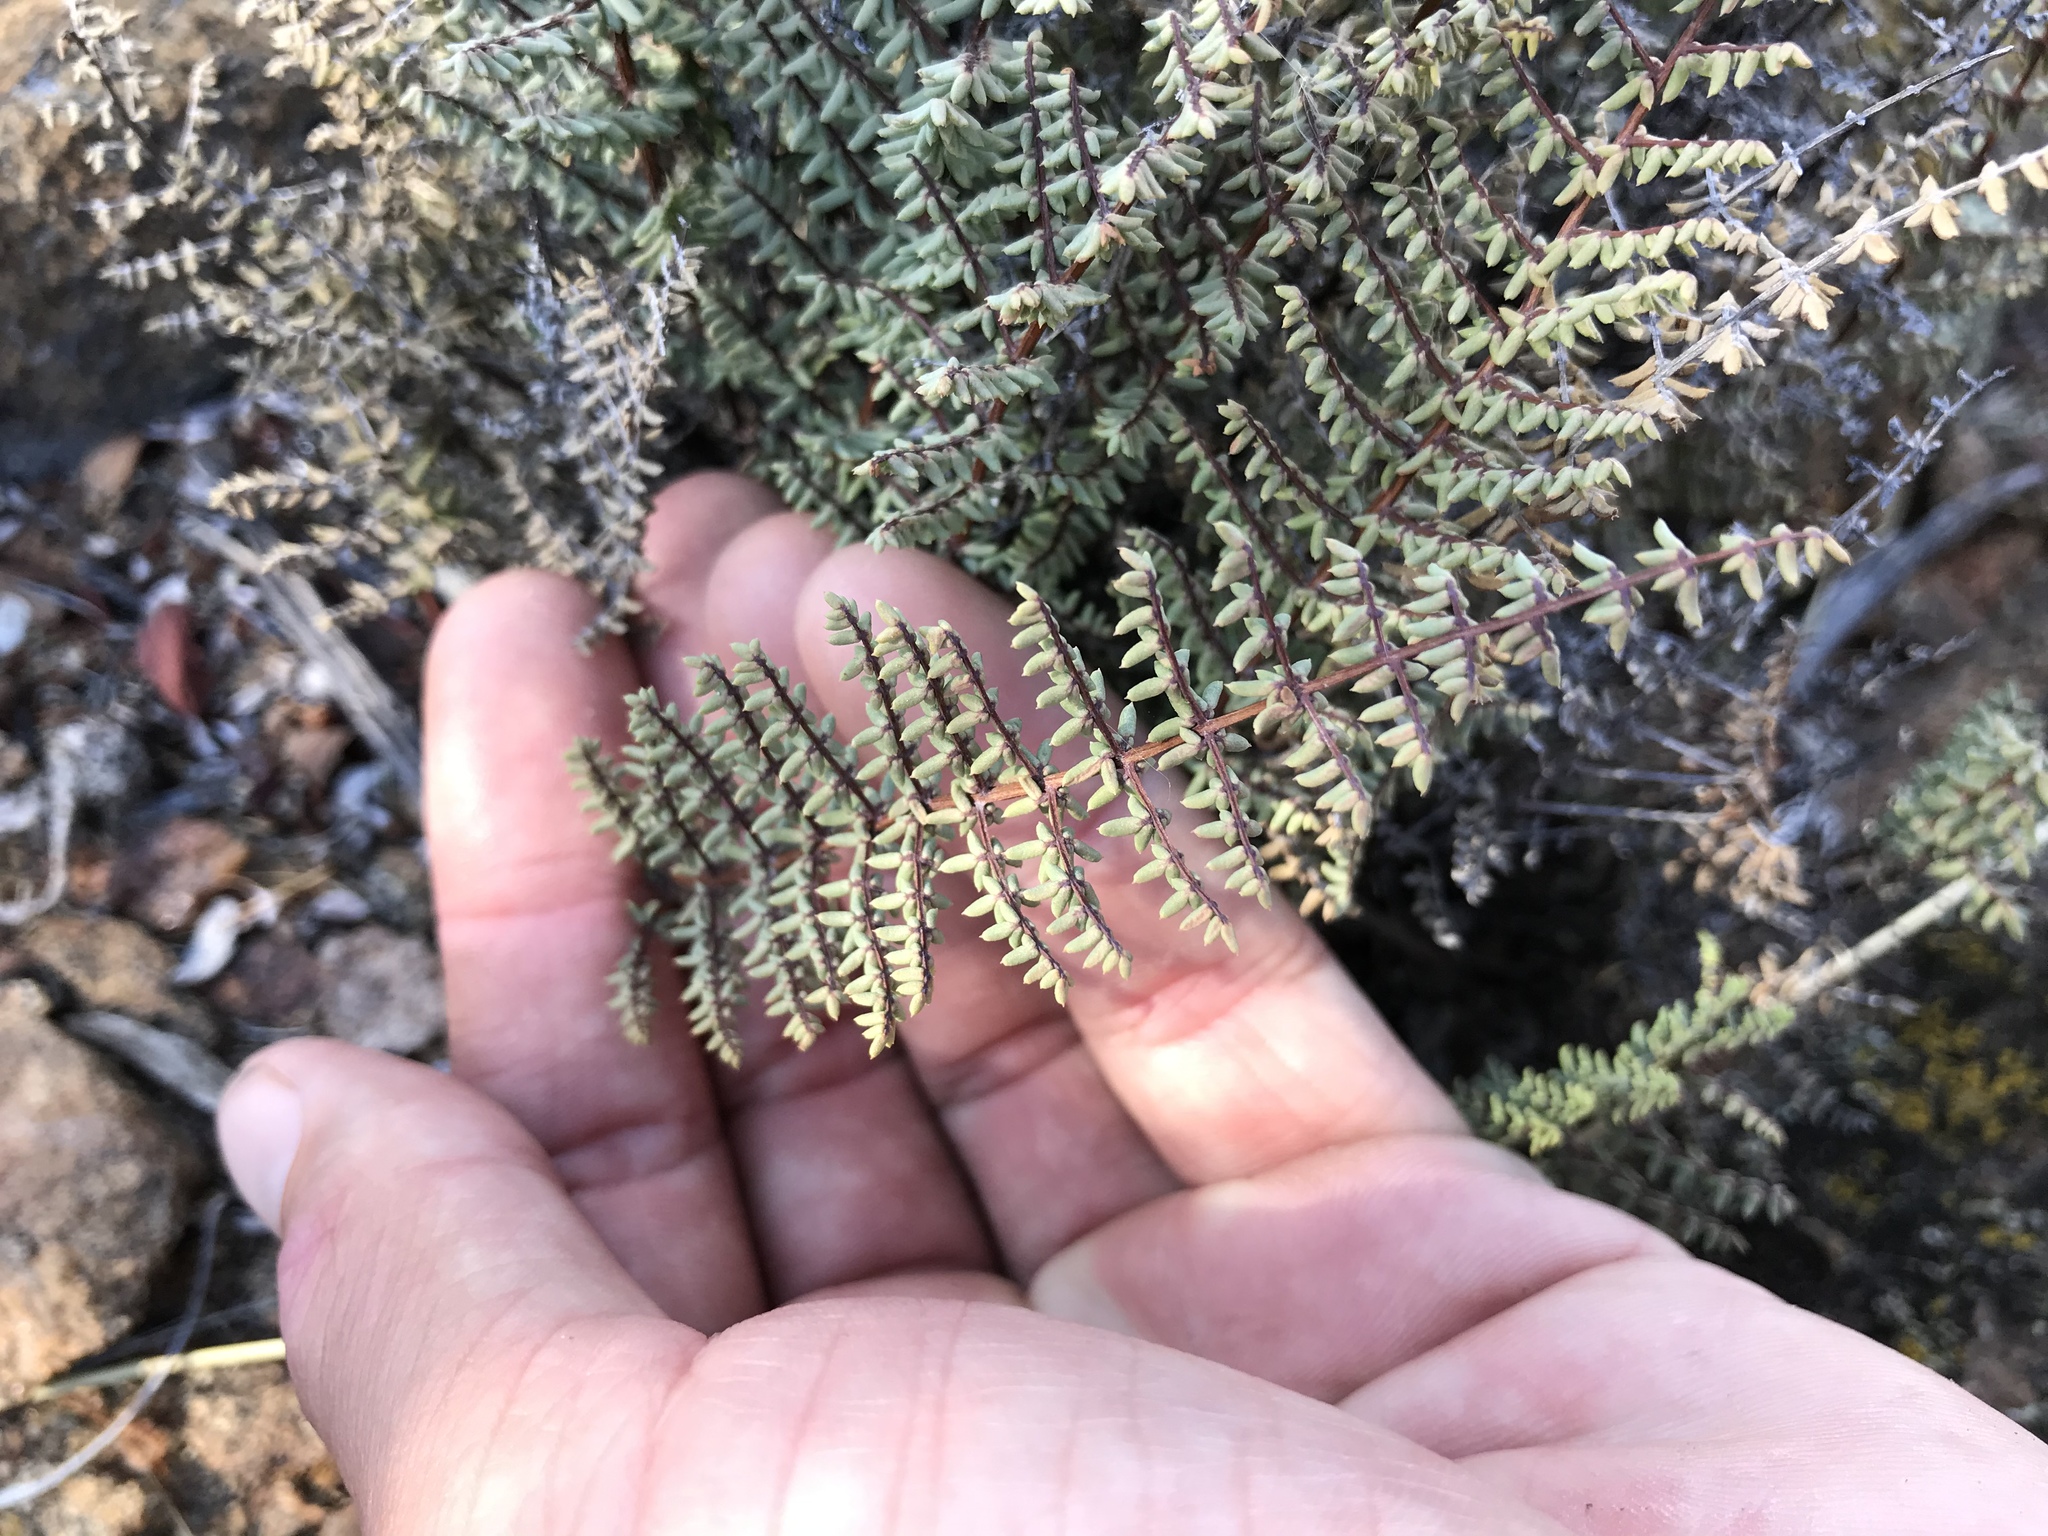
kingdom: Plantae
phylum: Tracheophyta
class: Polypodiopsida
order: Polypodiales
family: Pteridaceae
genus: Pellaea
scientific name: Pellaea mucronata
